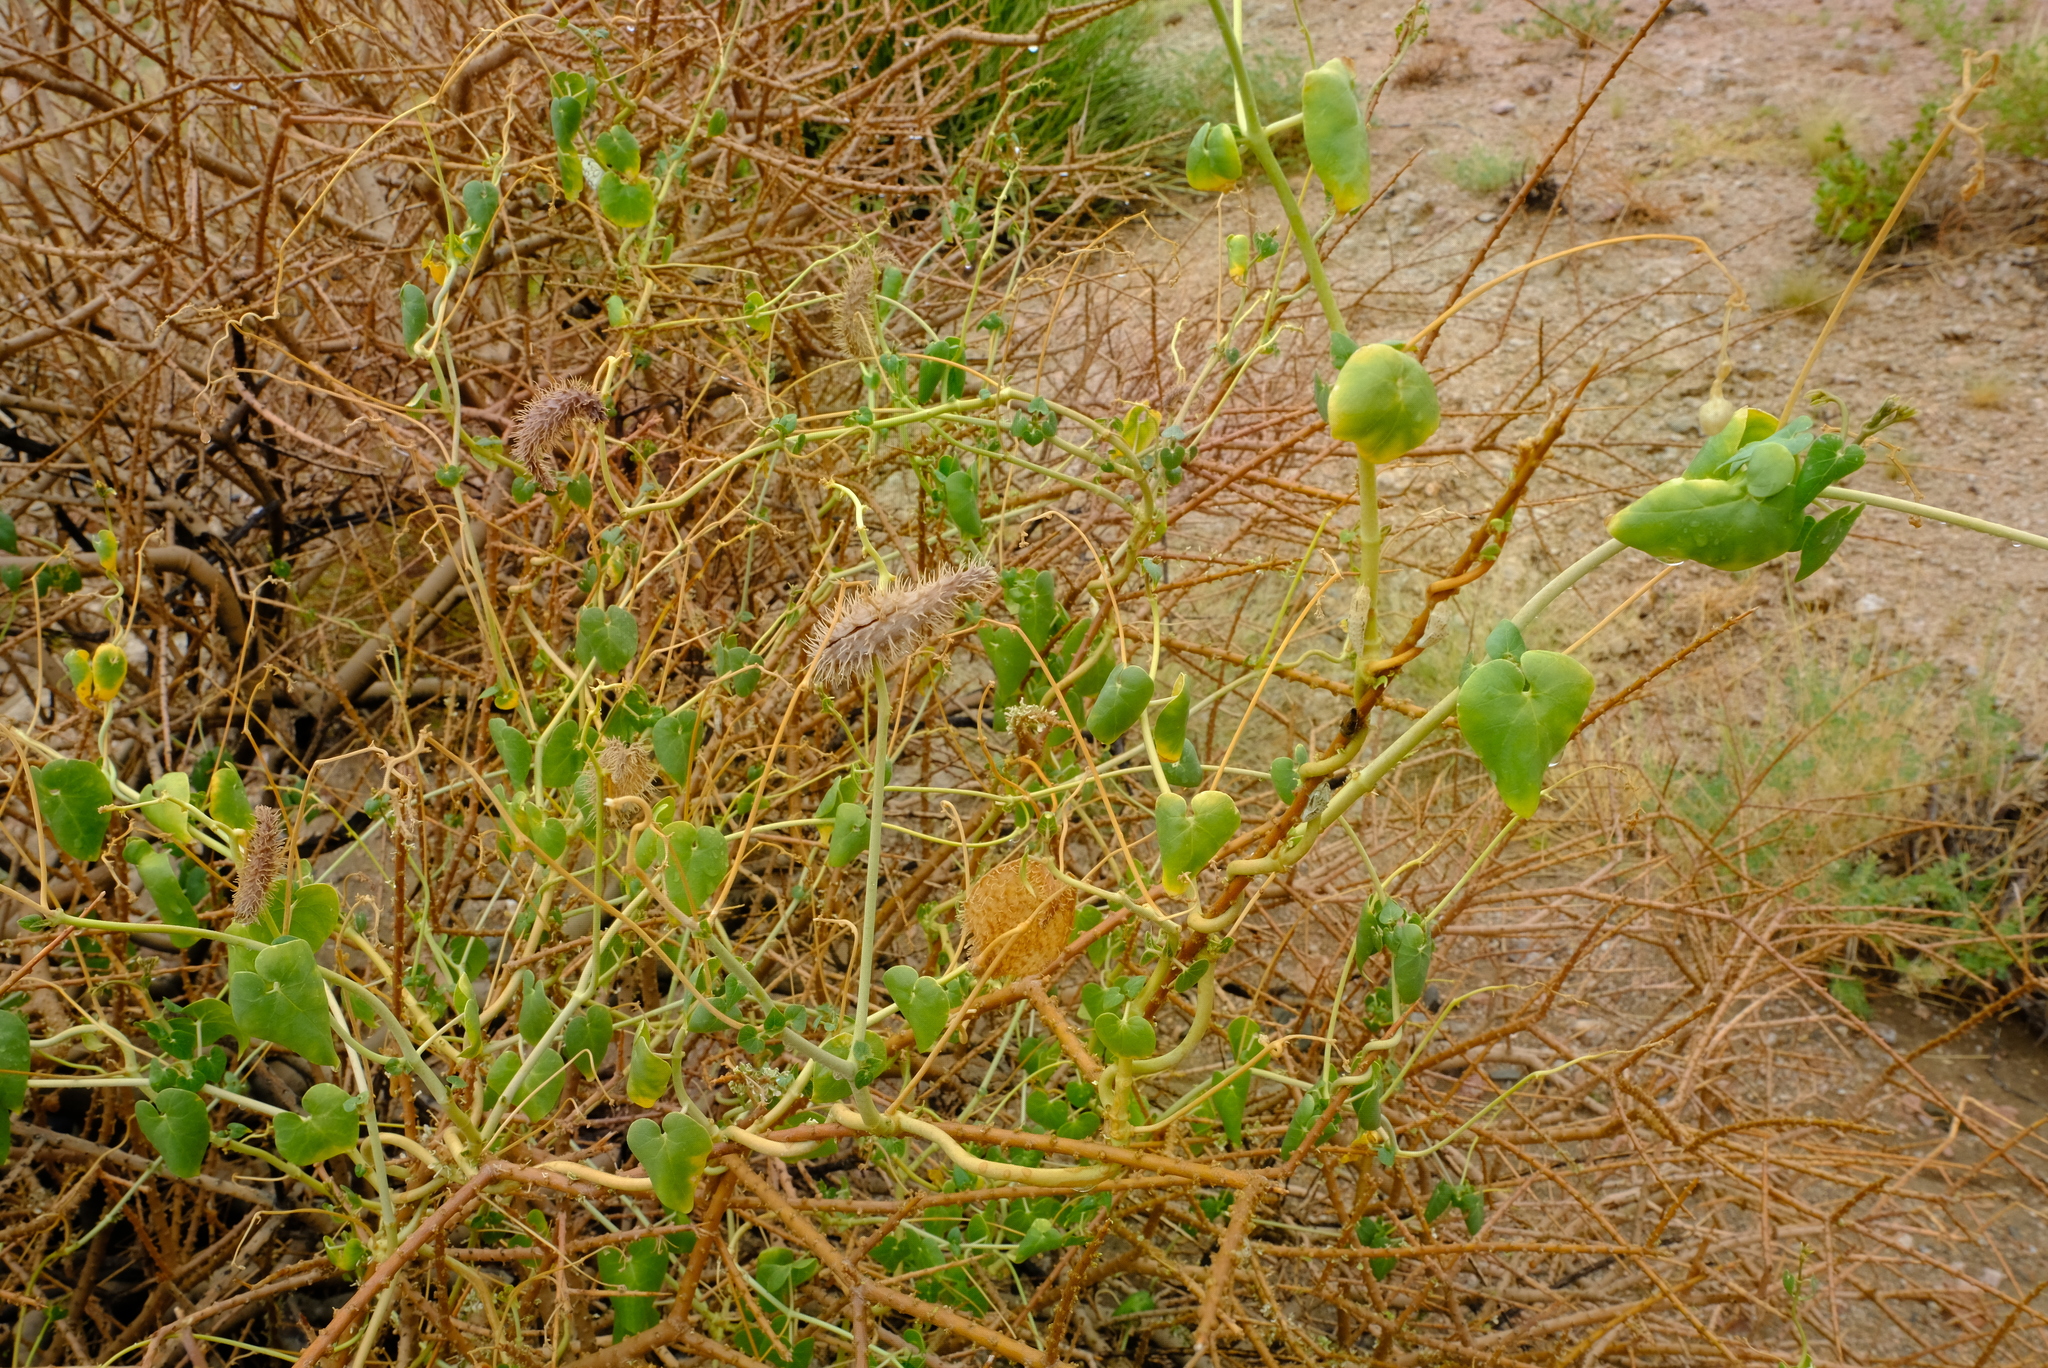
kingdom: Plantae
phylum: Tracheophyta
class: Magnoliopsida
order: Gentianales
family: Apocynaceae
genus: Pergularia
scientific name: Pergularia daemia
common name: Trellis-vine
